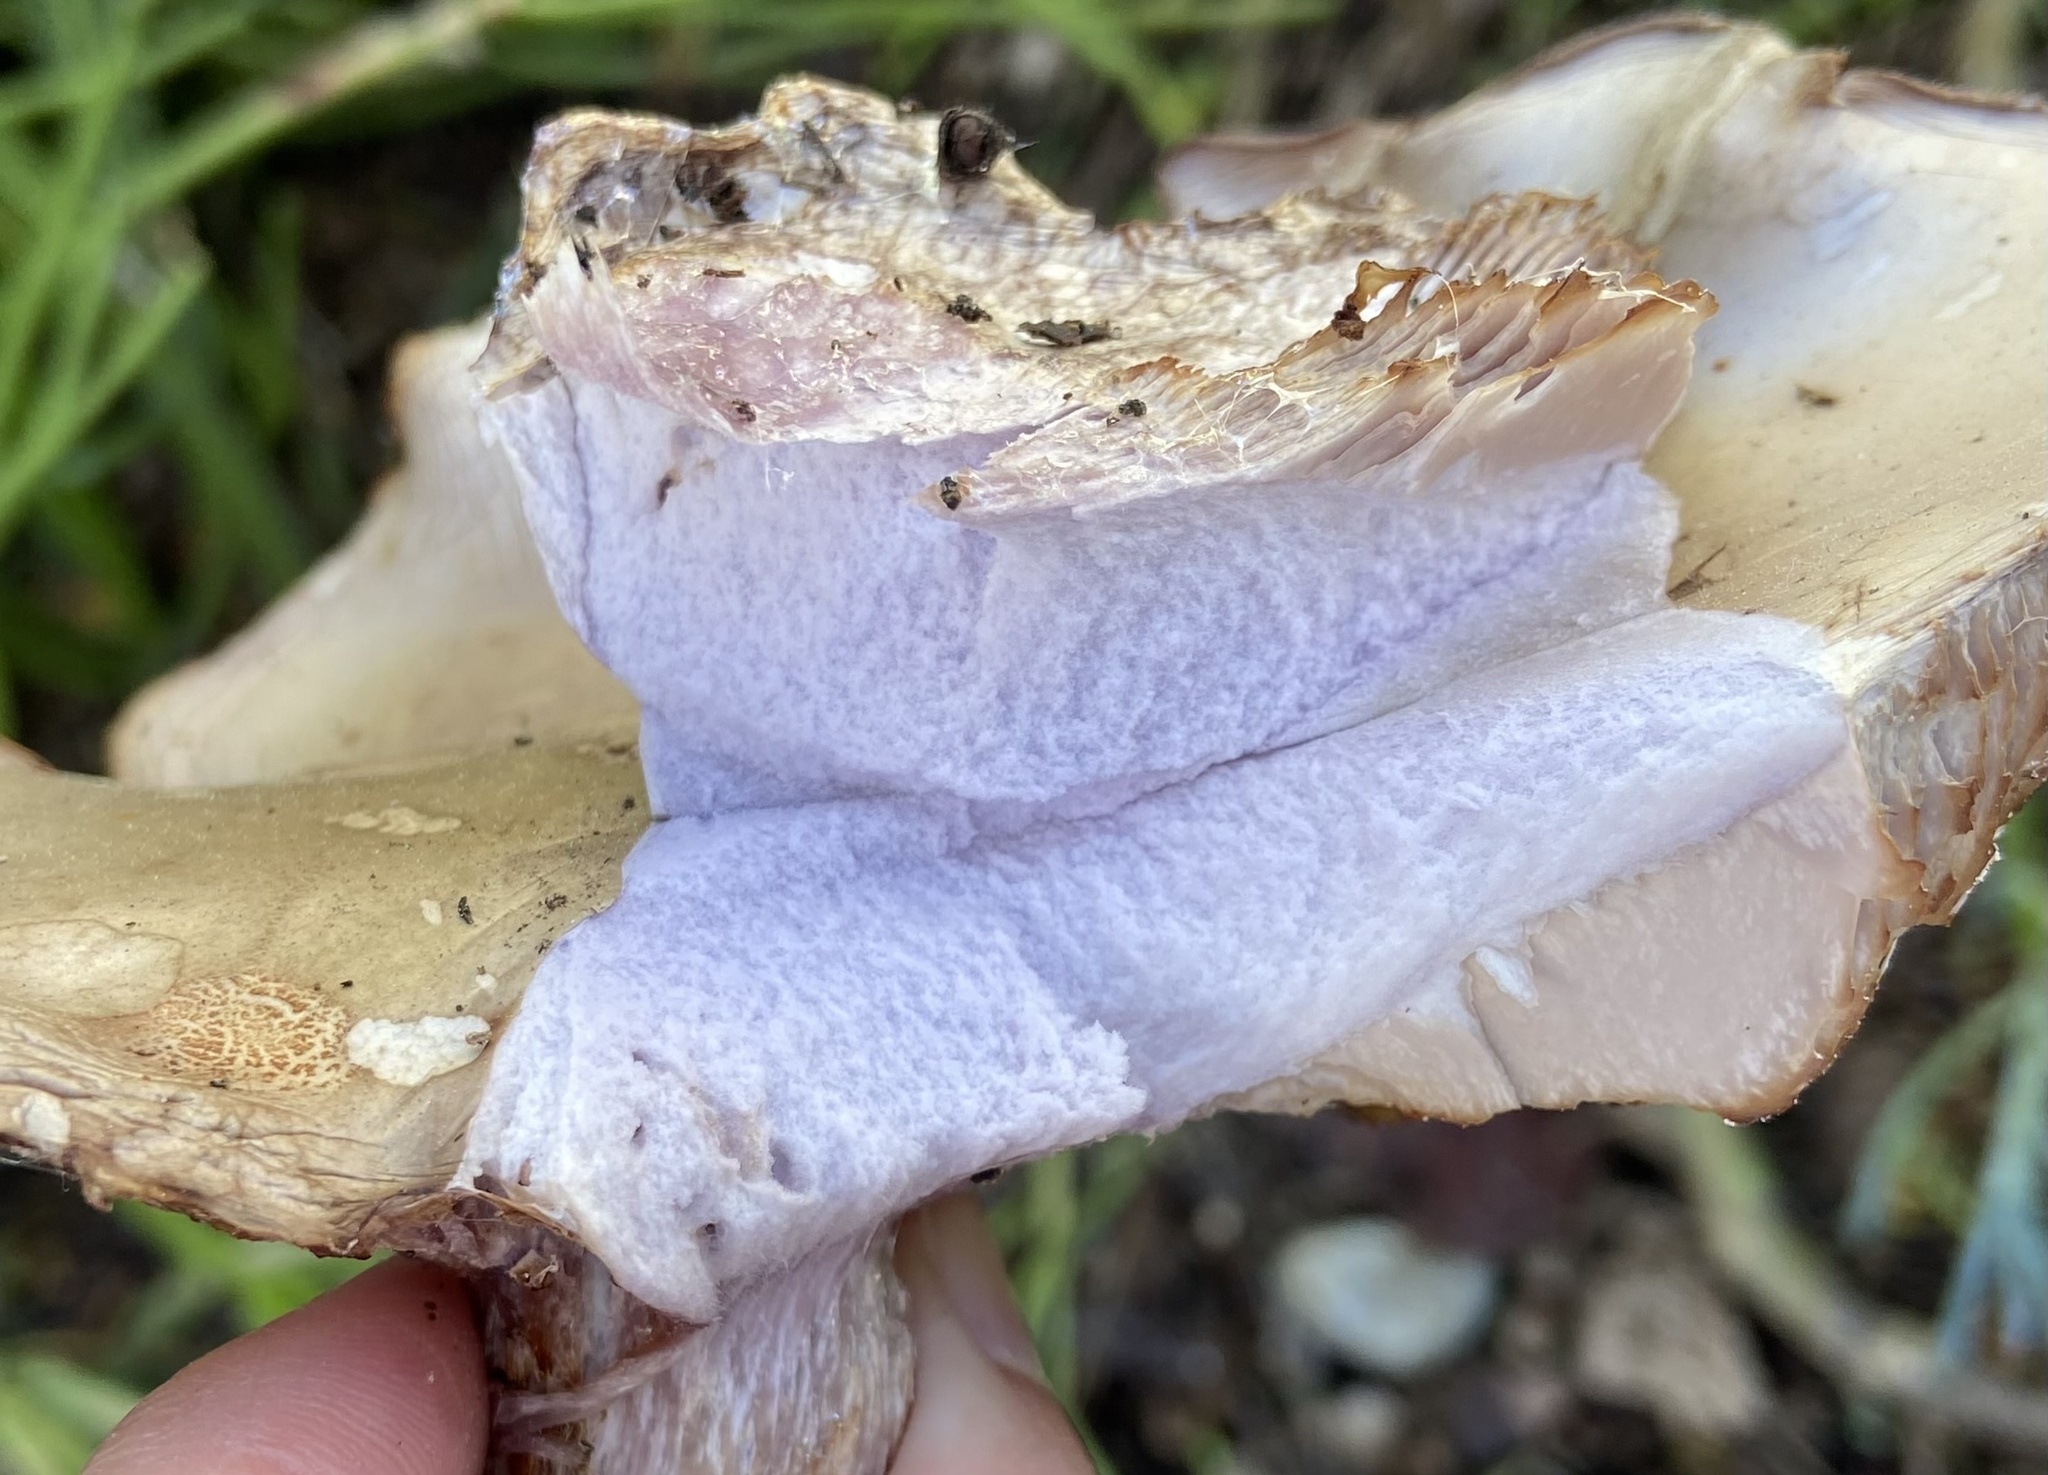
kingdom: Fungi
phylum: Basidiomycota
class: Agaricomycetes
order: Agaricales
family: Tricholomataceae
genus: Collybia
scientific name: Collybia
